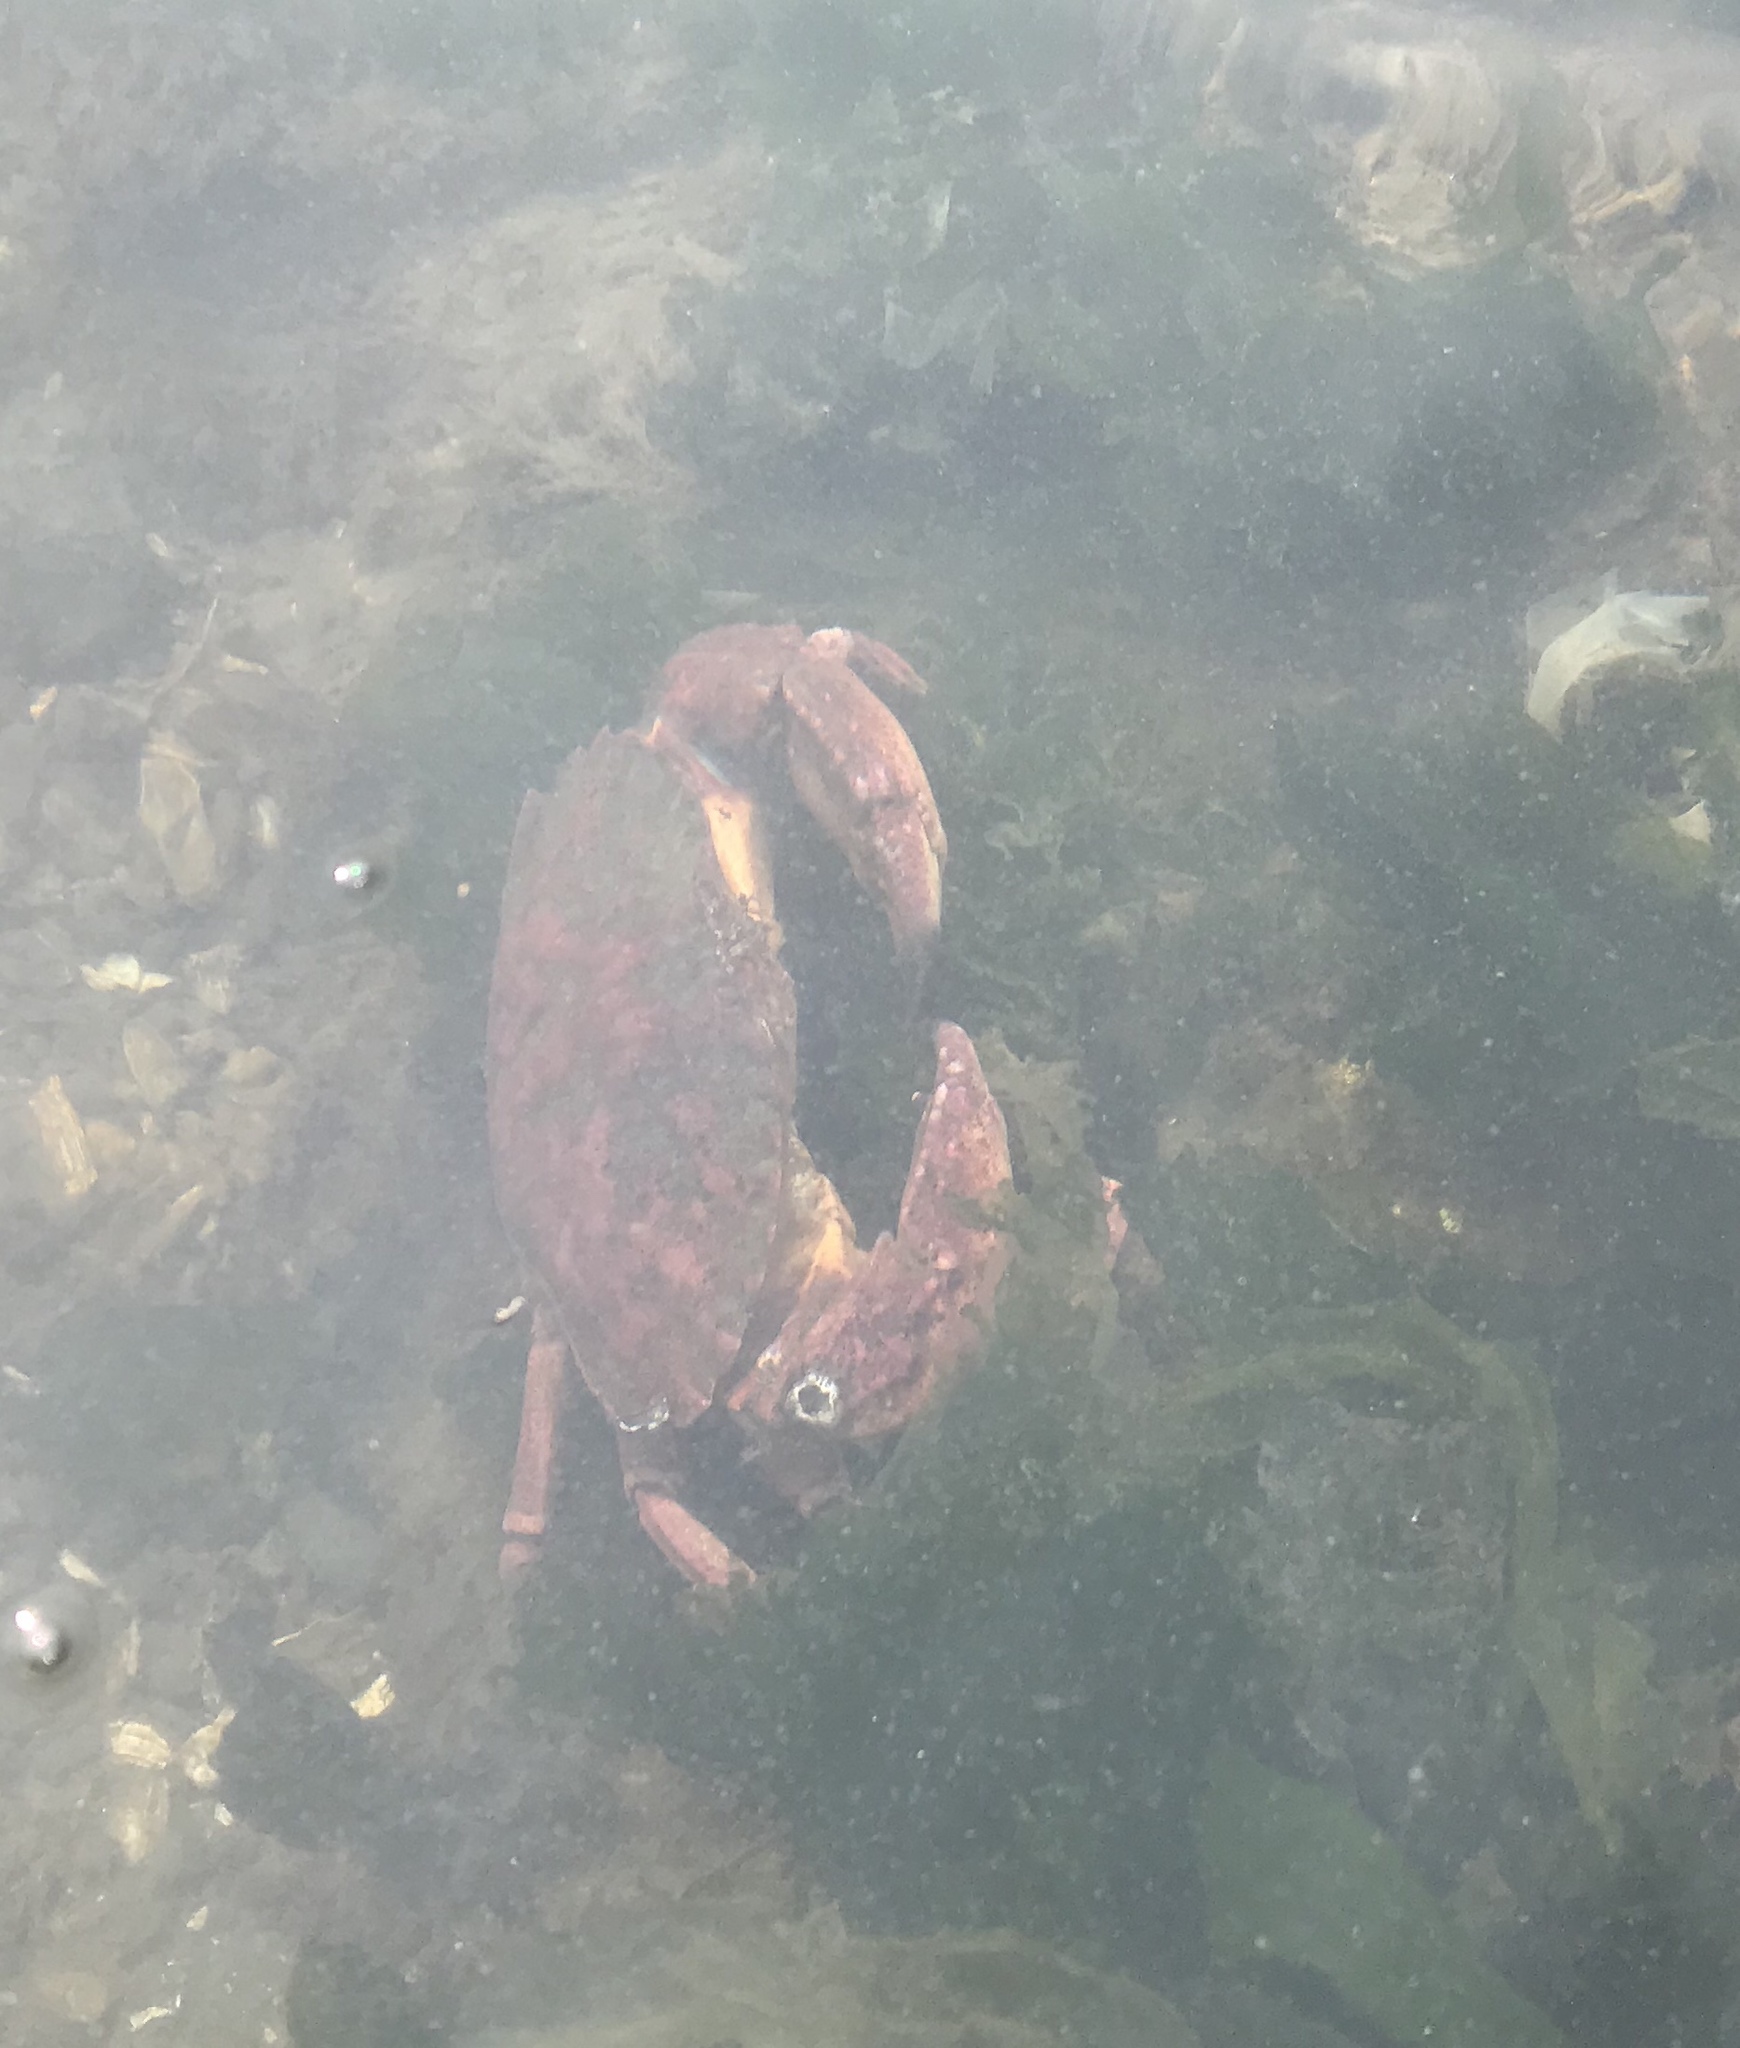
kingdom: Animalia
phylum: Arthropoda
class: Malacostraca
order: Decapoda
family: Cancridae
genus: Cancer
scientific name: Cancer productus
